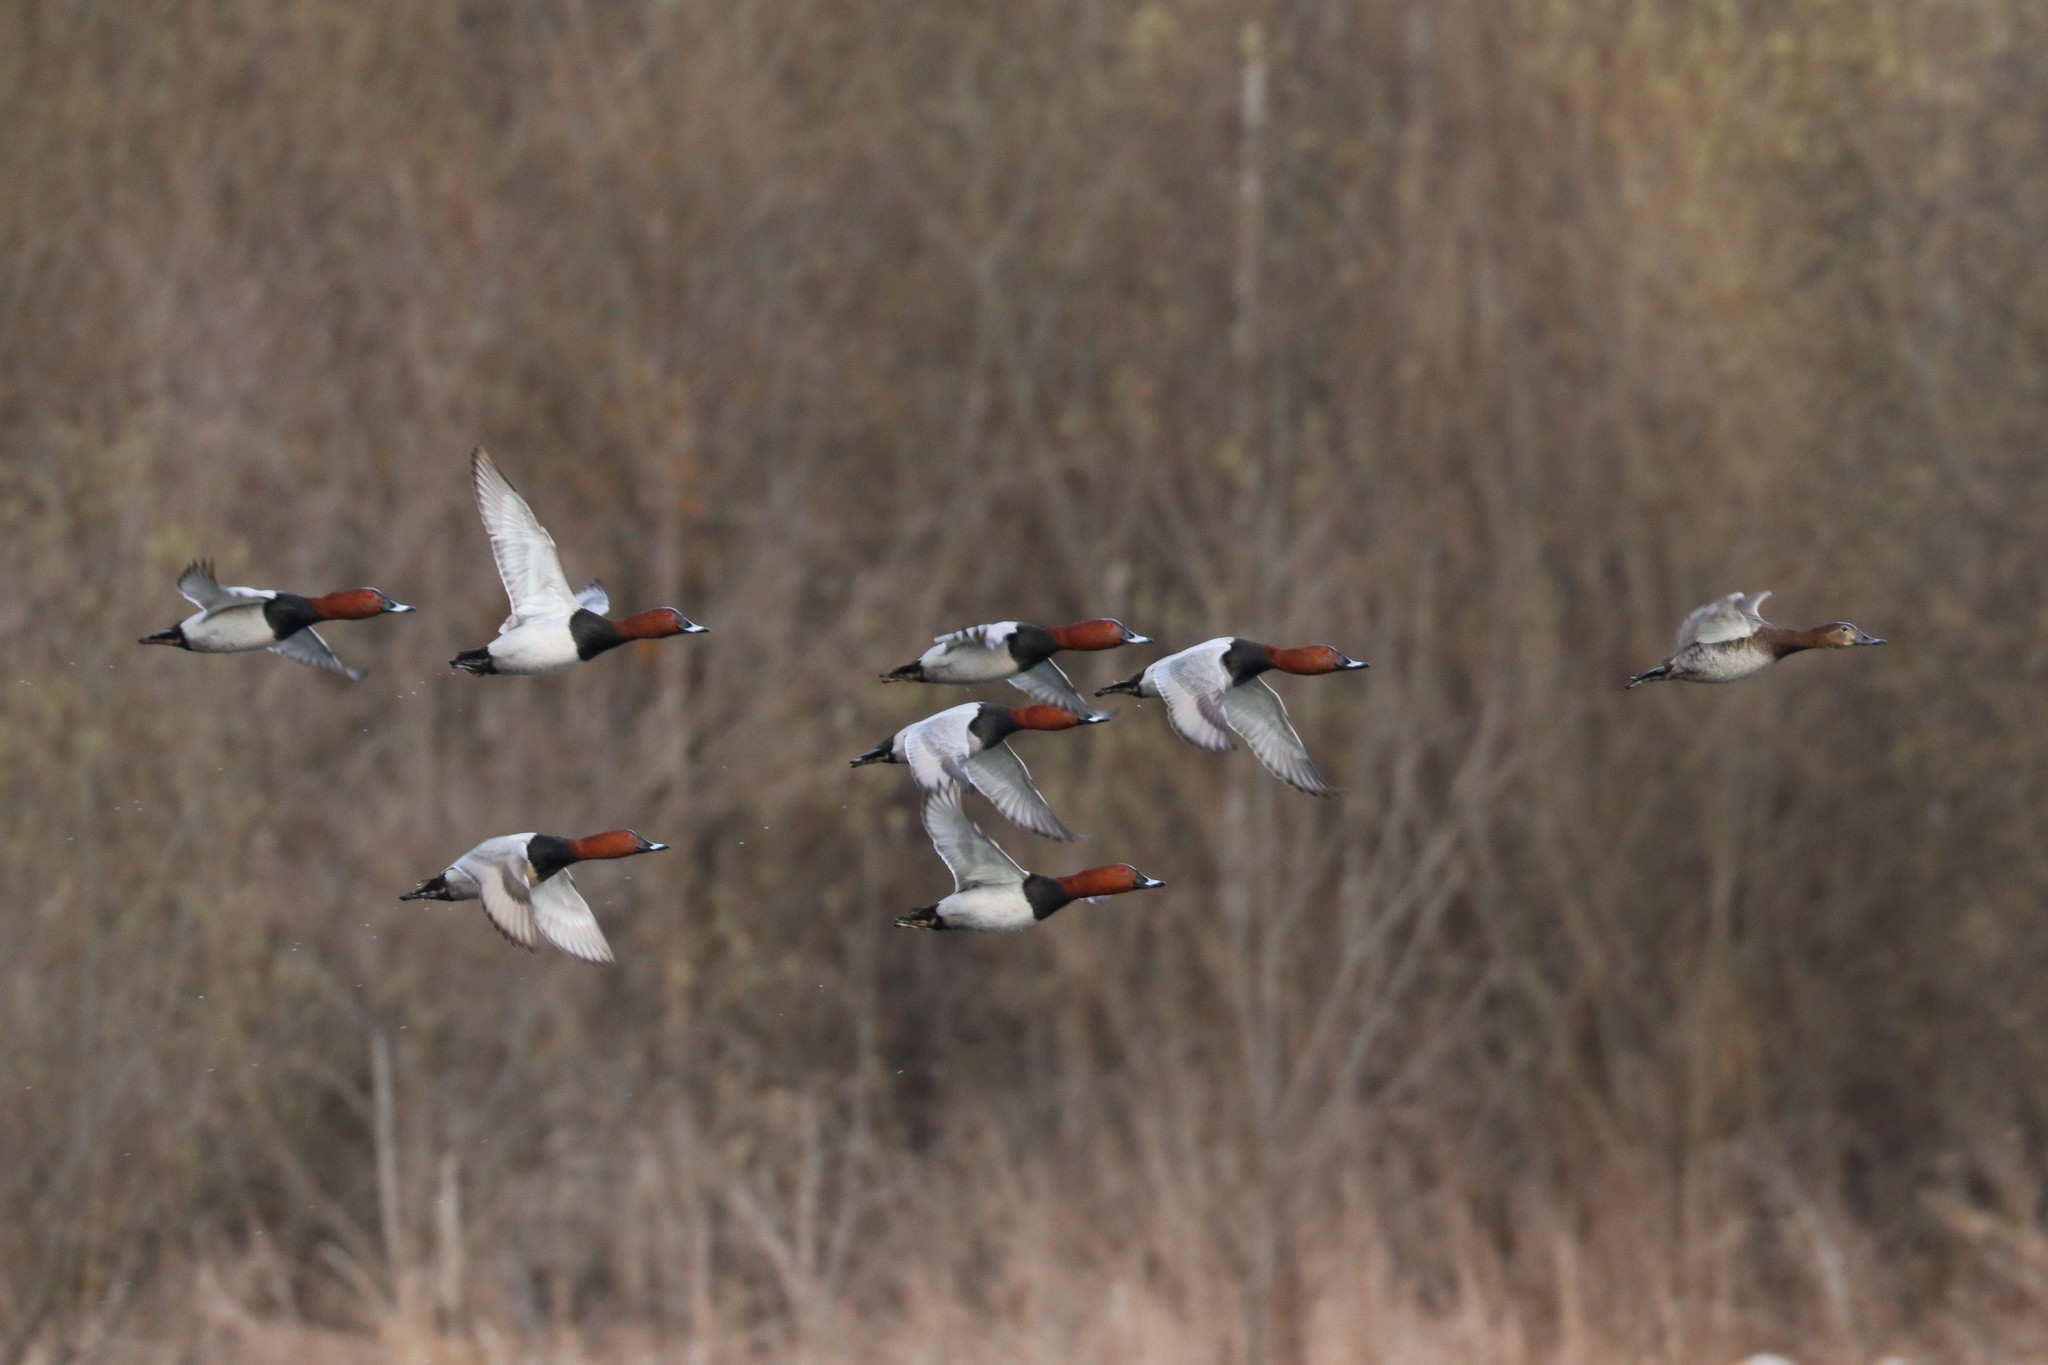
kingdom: Animalia
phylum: Chordata
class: Aves
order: Anseriformes
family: Anatidae
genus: Aythya
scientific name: Aythya ferina
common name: Common pochard
